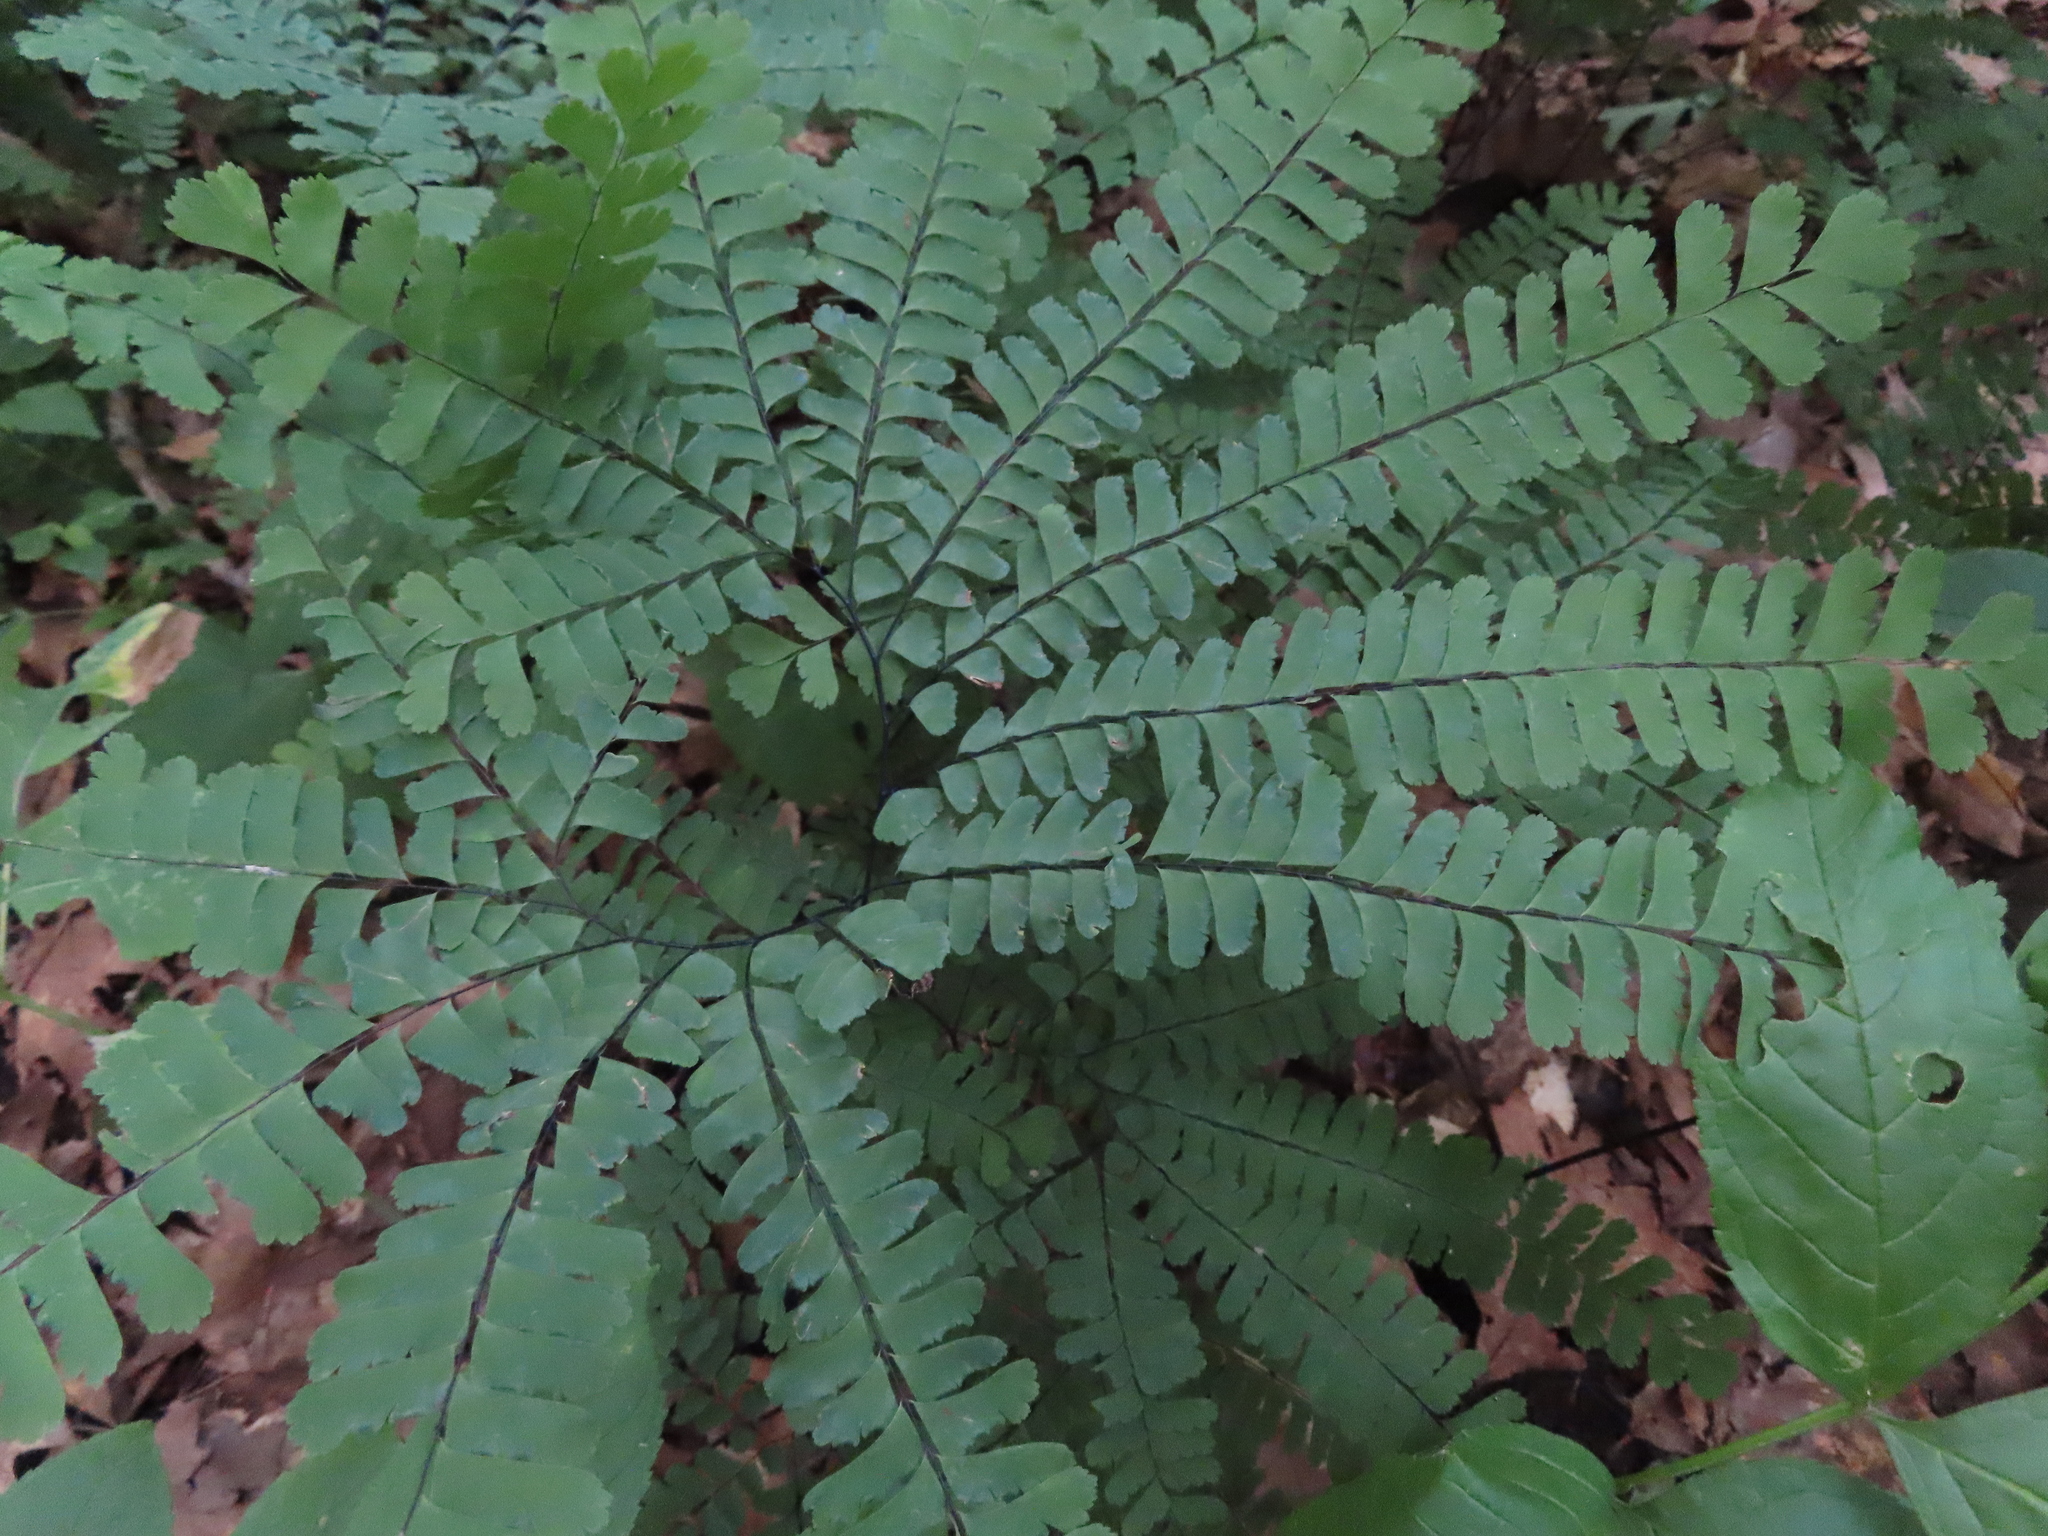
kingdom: Plantae
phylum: Tracheophyta
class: Polypodiopsida
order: Polypodiales
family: Pteridaceae
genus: Adiantum
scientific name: Adiantum pedatum
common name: Five-finger fern
